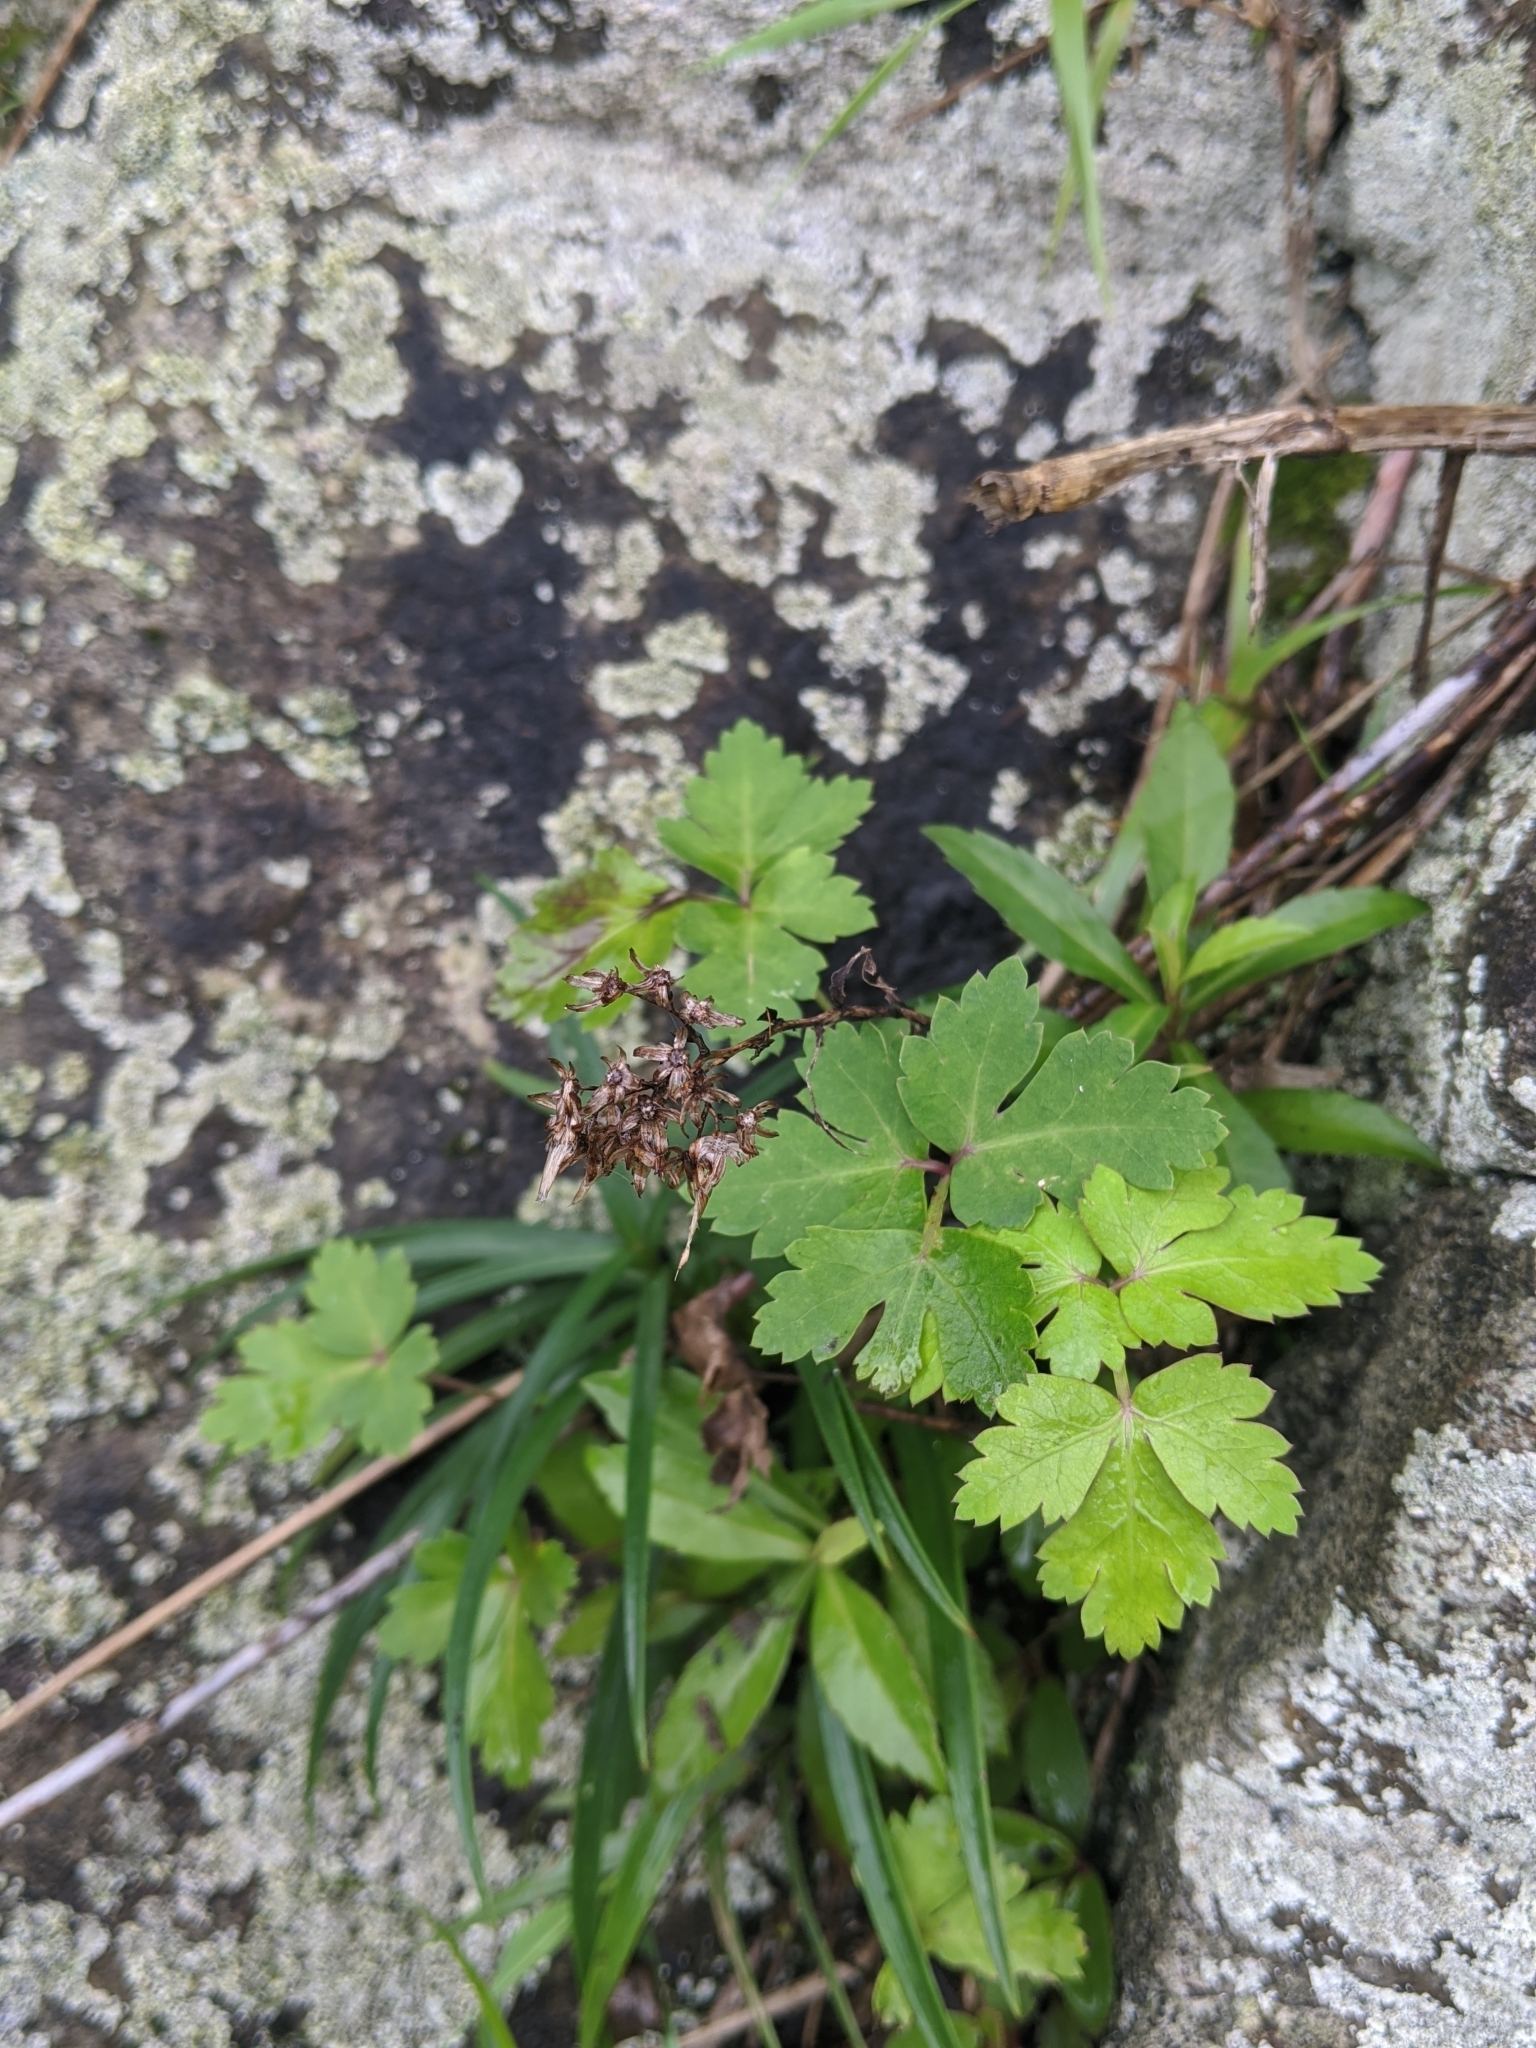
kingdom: Plantae
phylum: Tracheophyta
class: Magnoliopsida
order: Apiales
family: Apiaceae
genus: Kitagawia
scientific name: Kitagawia formosana
